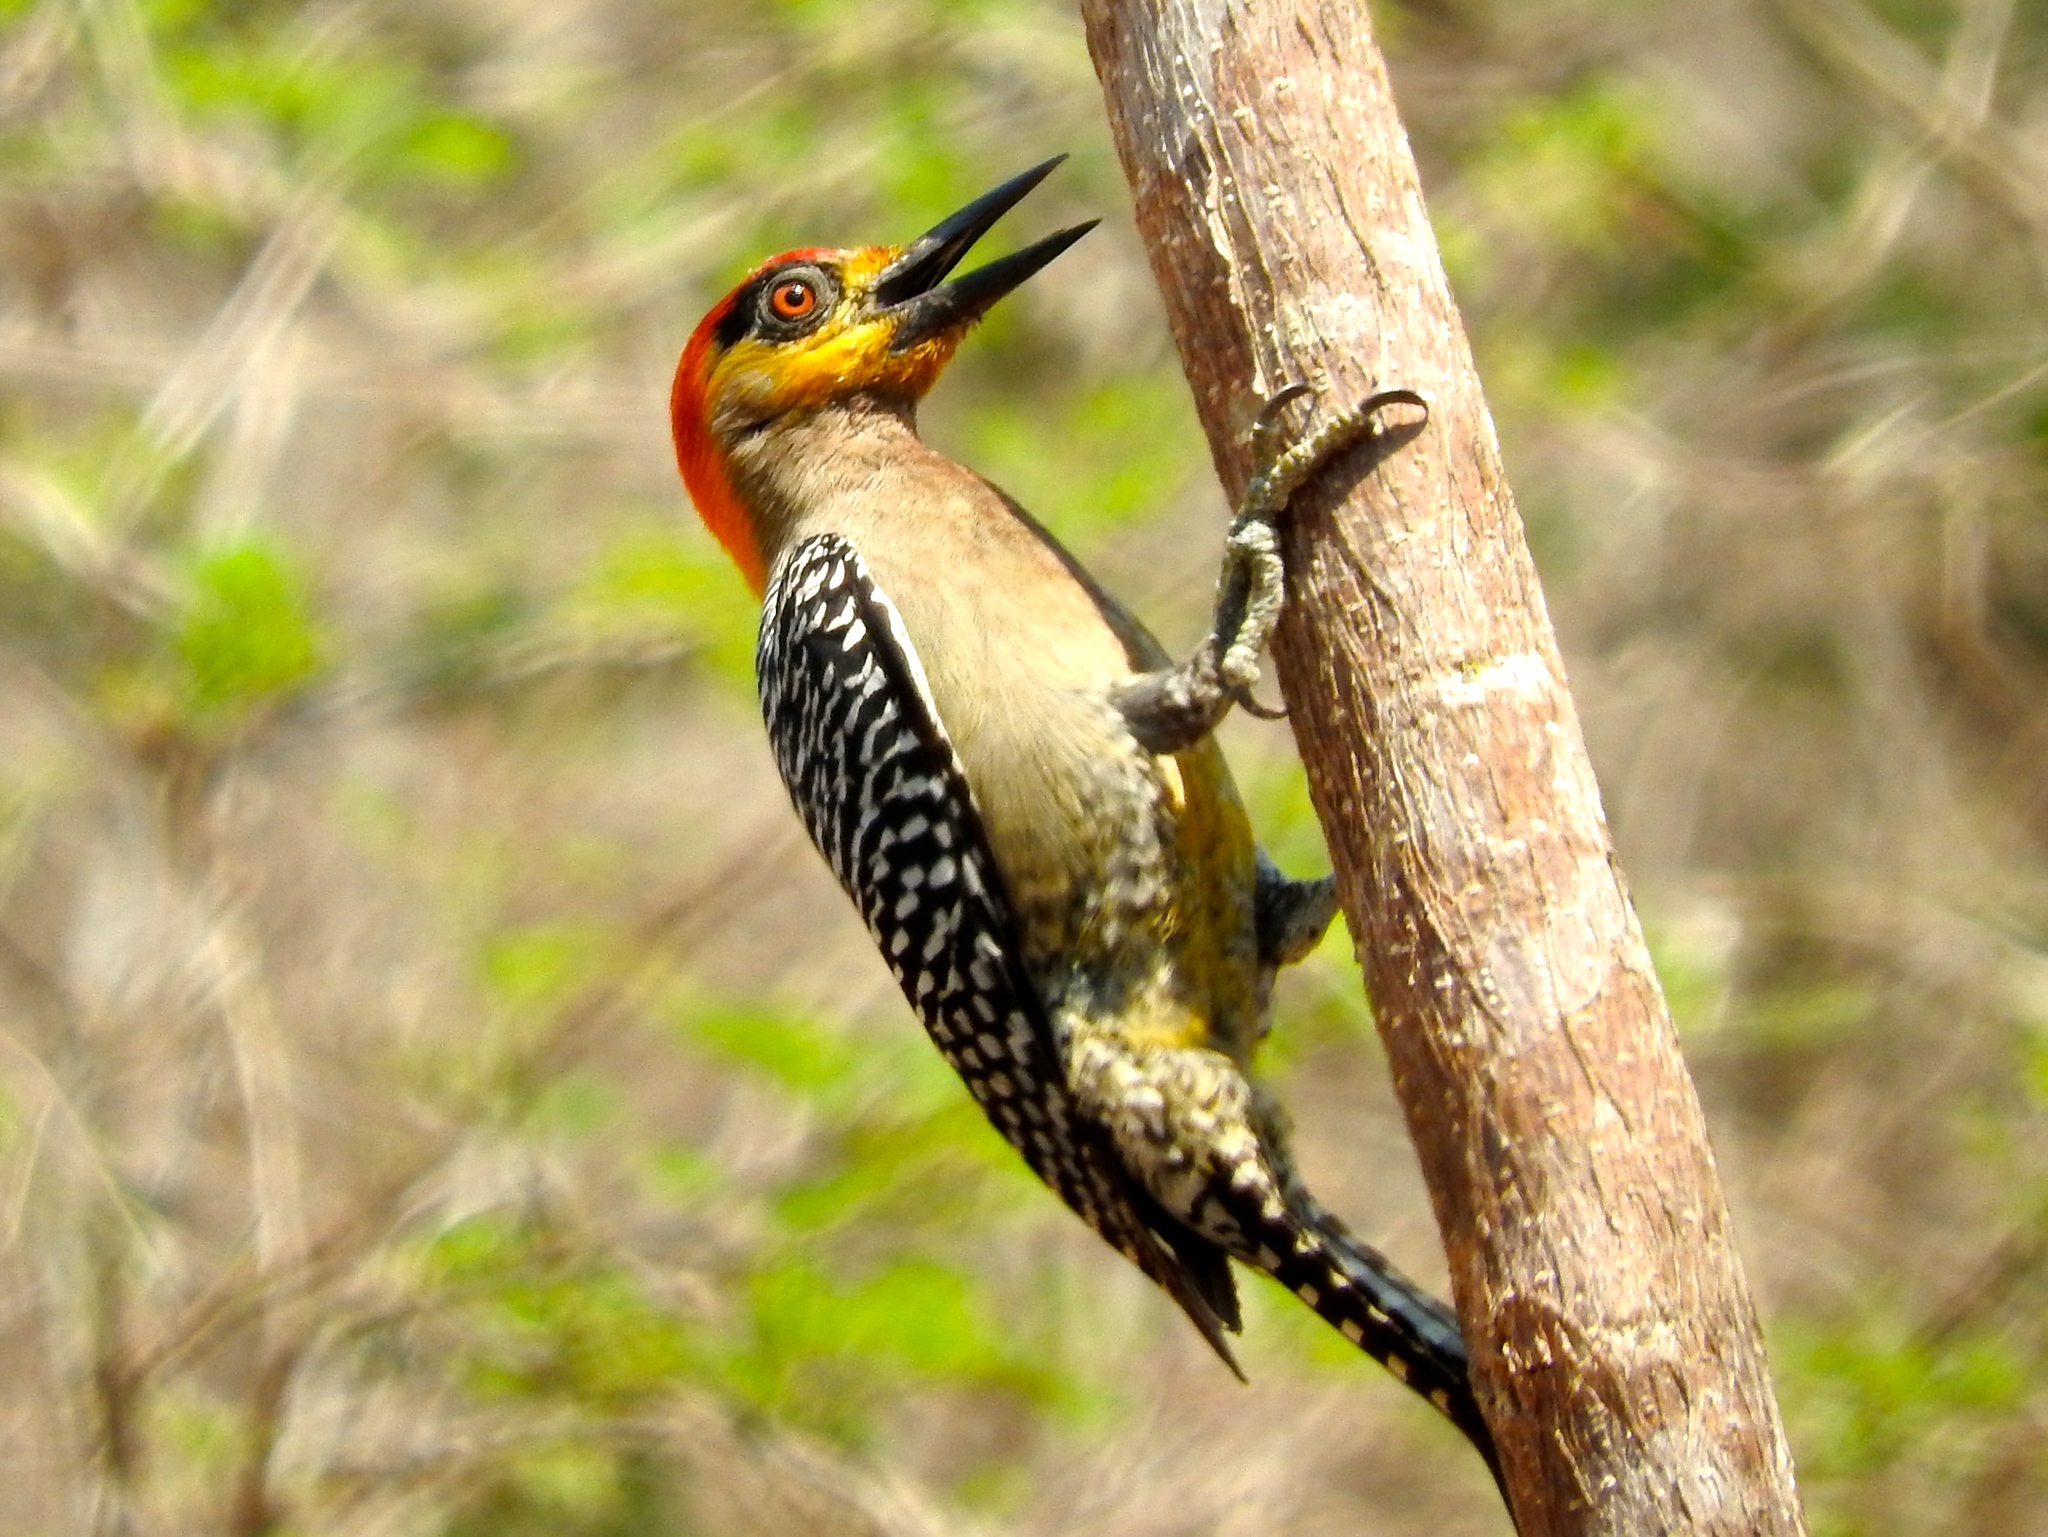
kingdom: Animalia
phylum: Chordata
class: Aves
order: Piciformes
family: Picidae
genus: Melanerpes
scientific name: Melanerpes chrysogenys
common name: Golden-cheeked woodpecker
